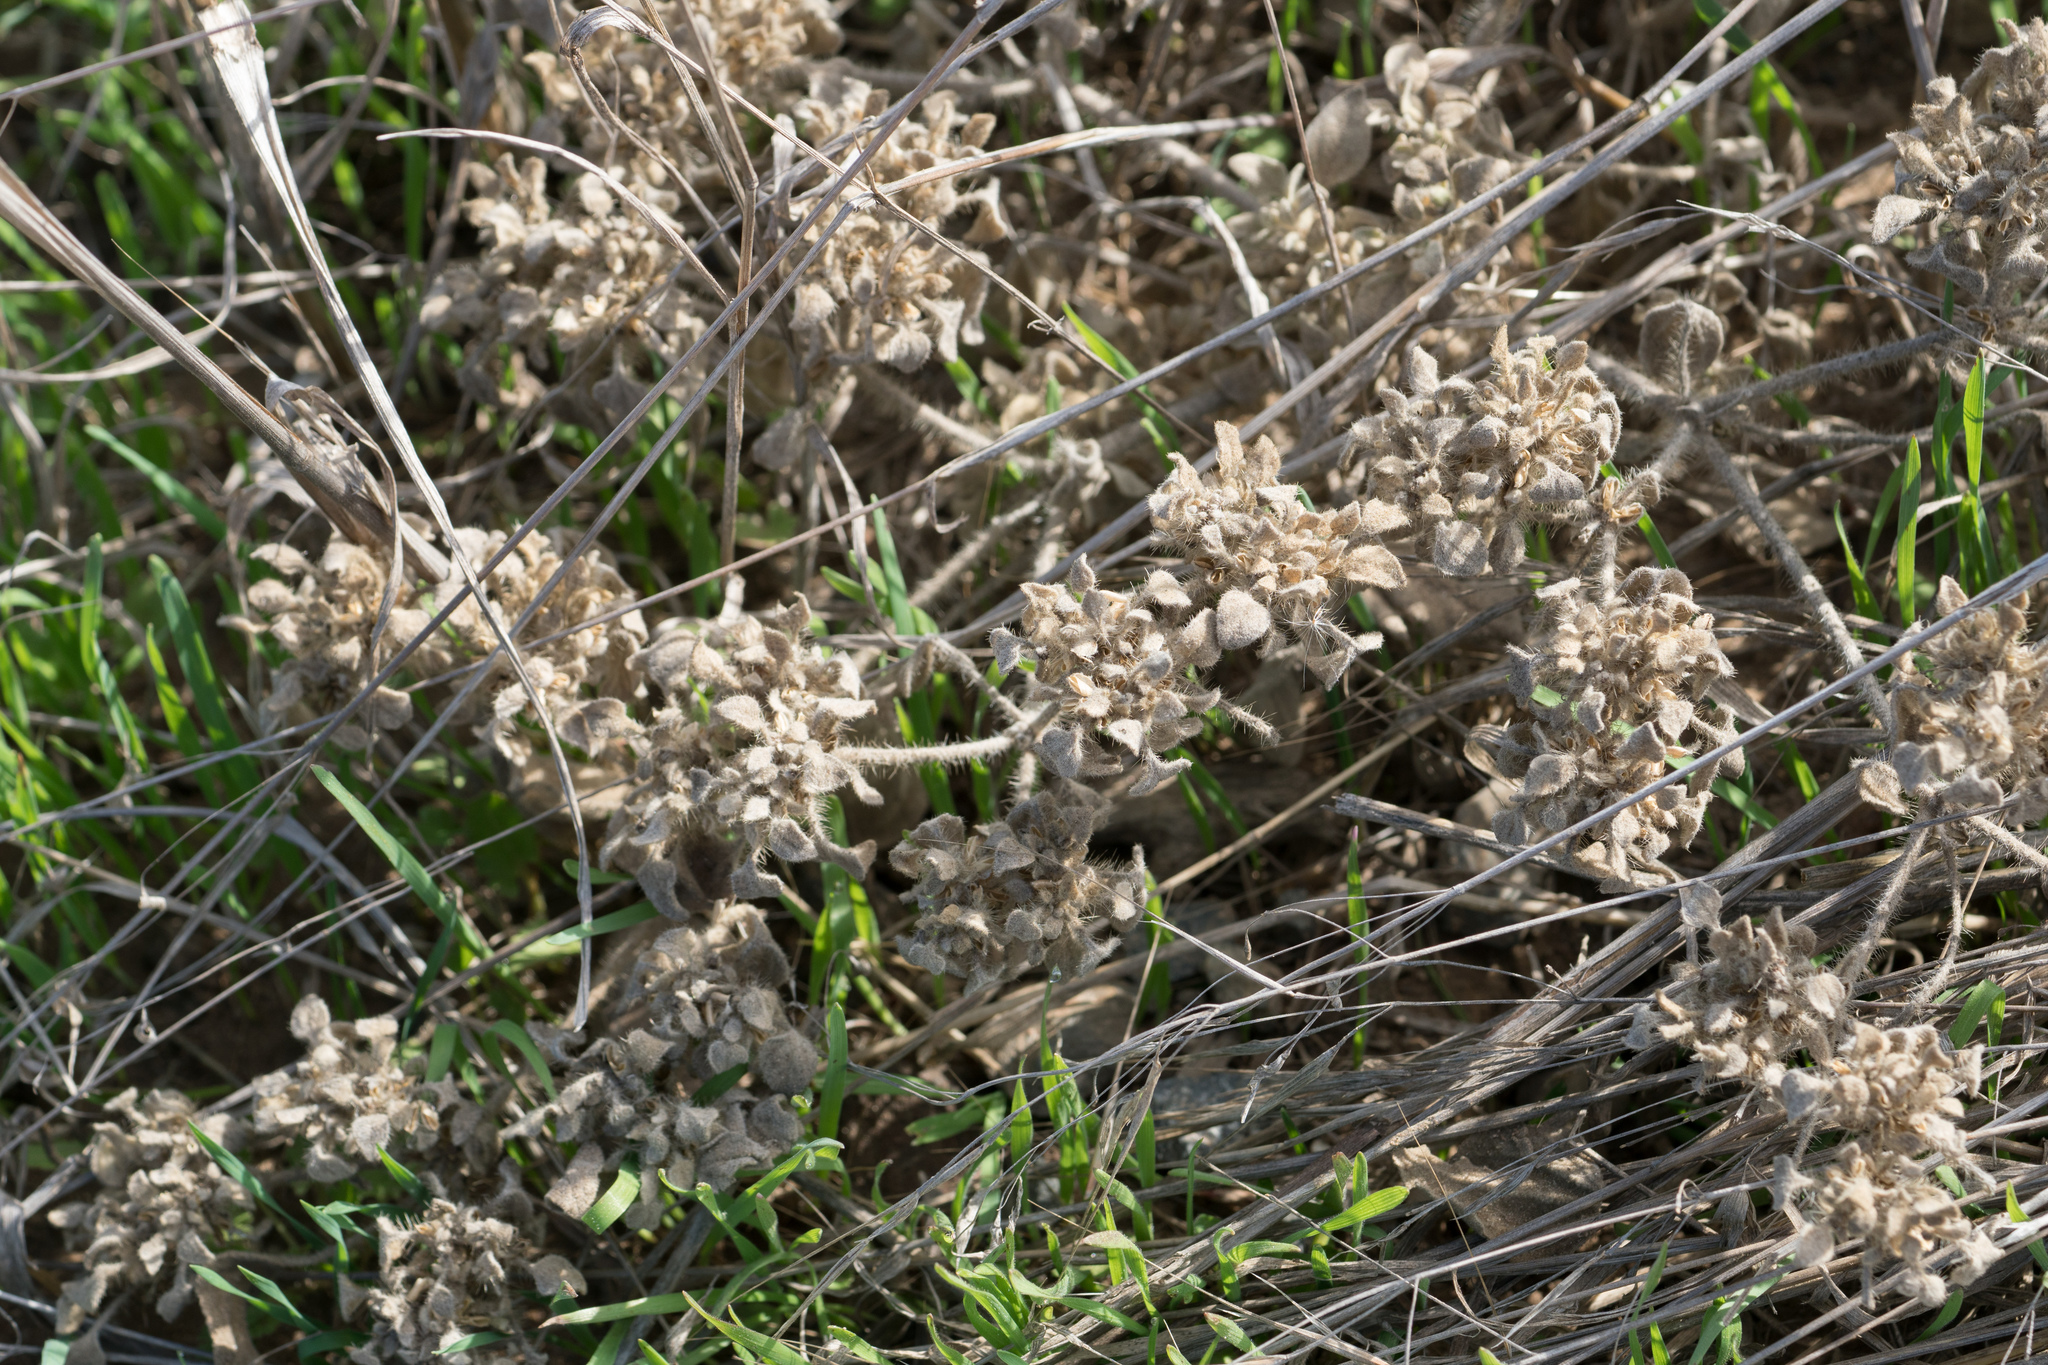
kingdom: Plantae
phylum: Tracheophyta
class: Magnoliopsida
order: Malpighiales
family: Euphorbiaceae
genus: Croton
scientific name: Croton setiger
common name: Dove weed
